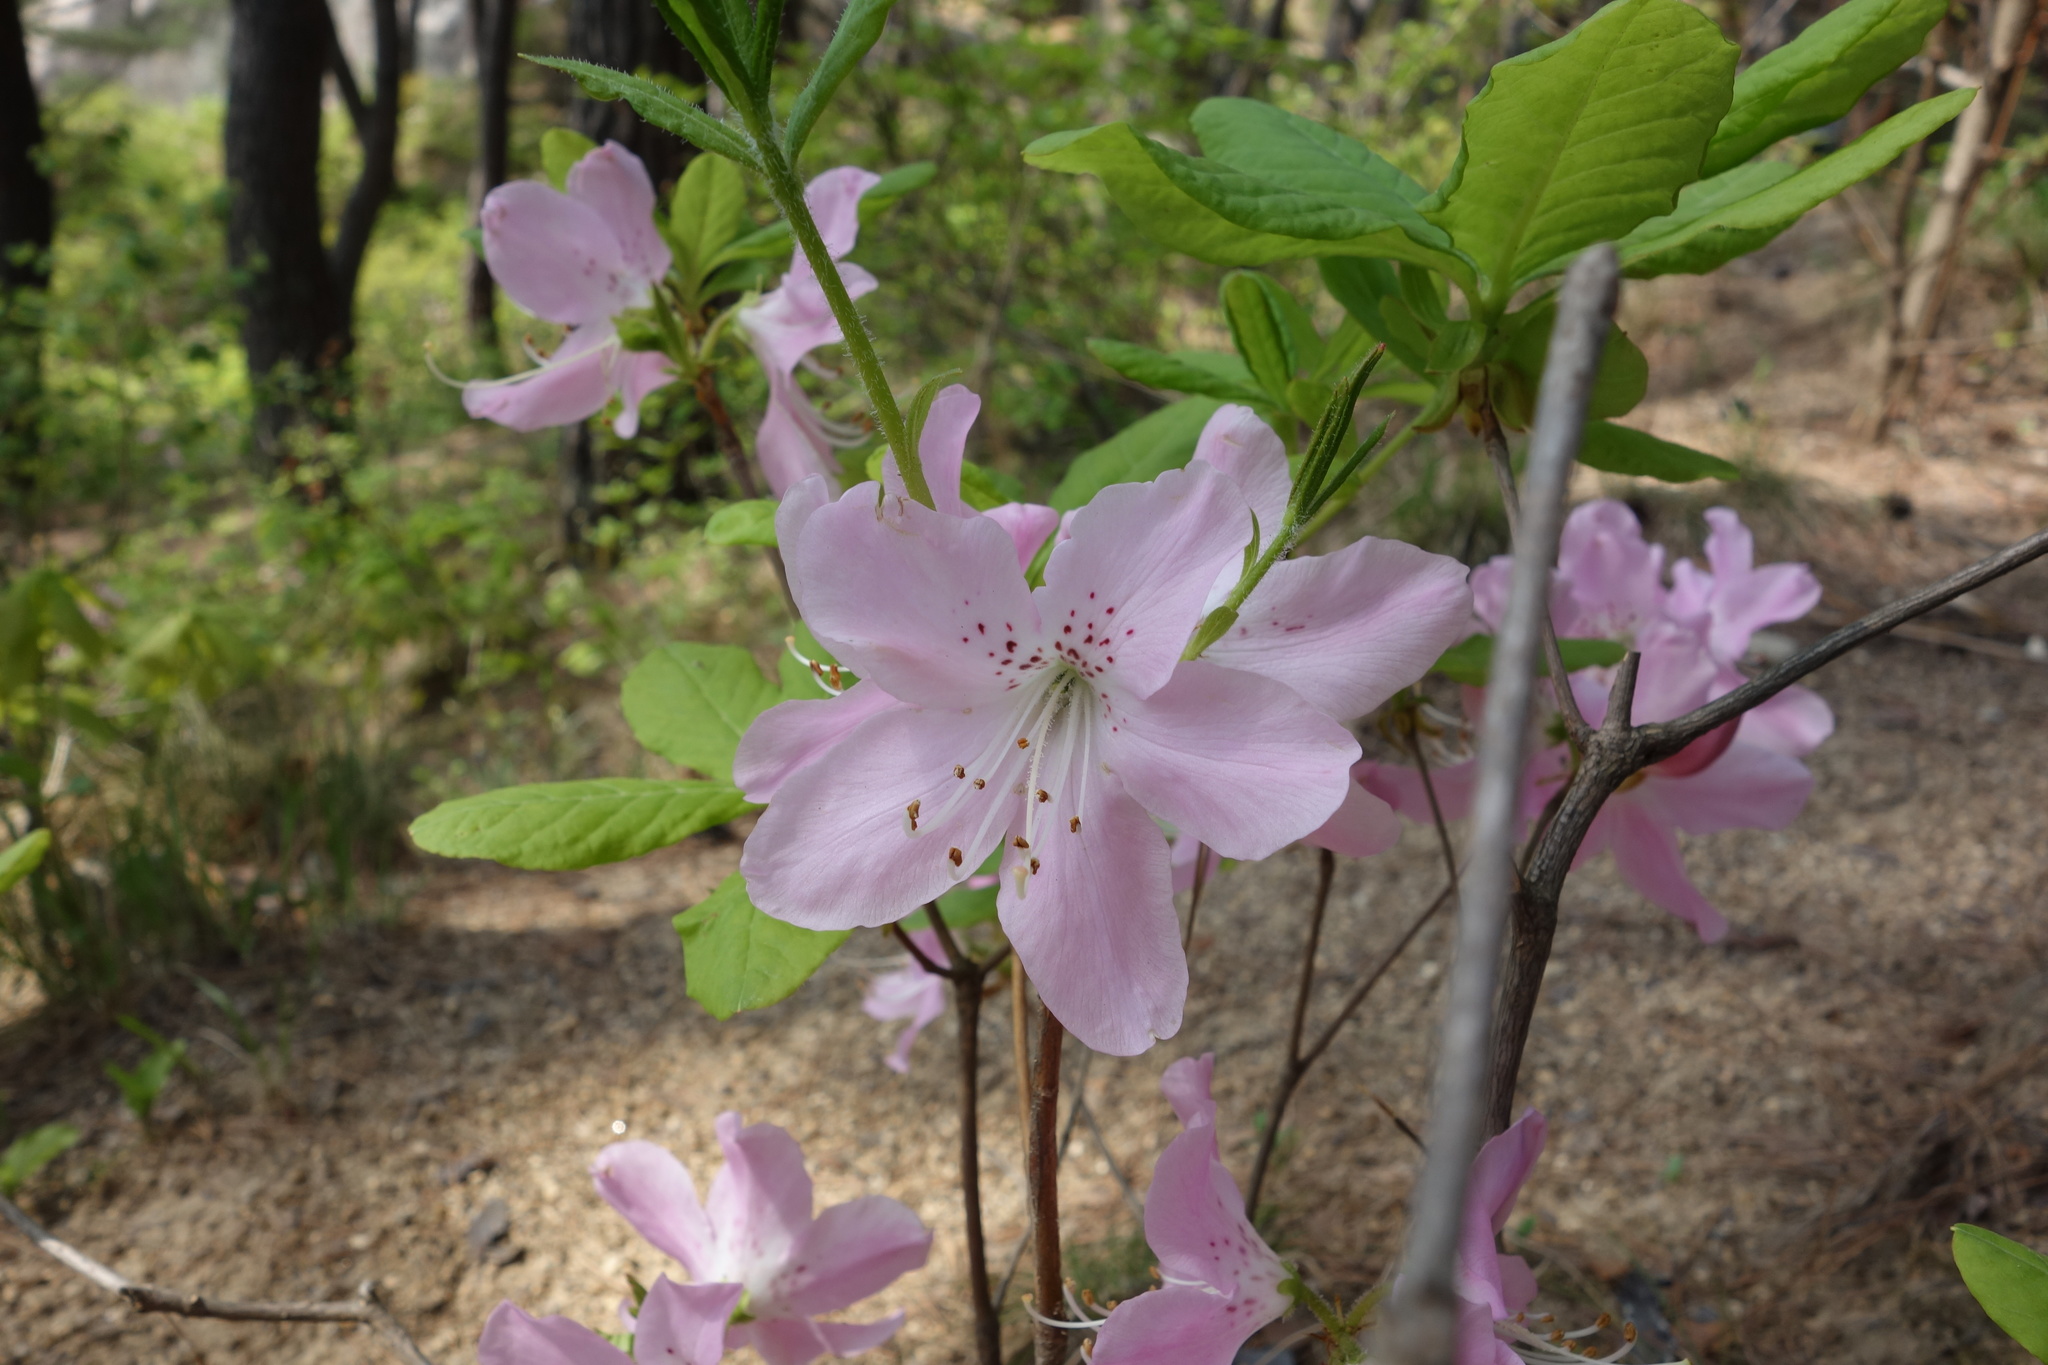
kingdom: Plantae
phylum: Tracheophyta
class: Magnoliopsida
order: Ericales
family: Ericaceae
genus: Rhododendron
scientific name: Rhododendron schlippenbachii
